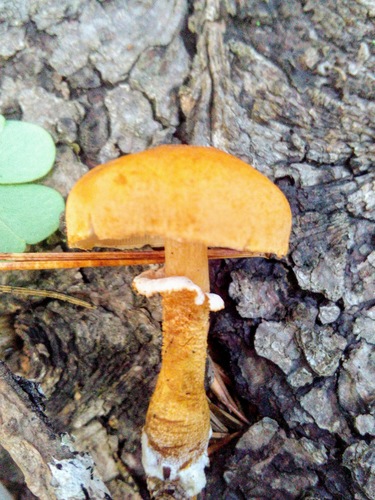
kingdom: Fungi
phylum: Basidiomycota
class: Agaricomycetes
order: Agaricales
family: Agaricaceae
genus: Cystodermella
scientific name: Cystodermella cinnabarina
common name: Cinnabar powdercap
